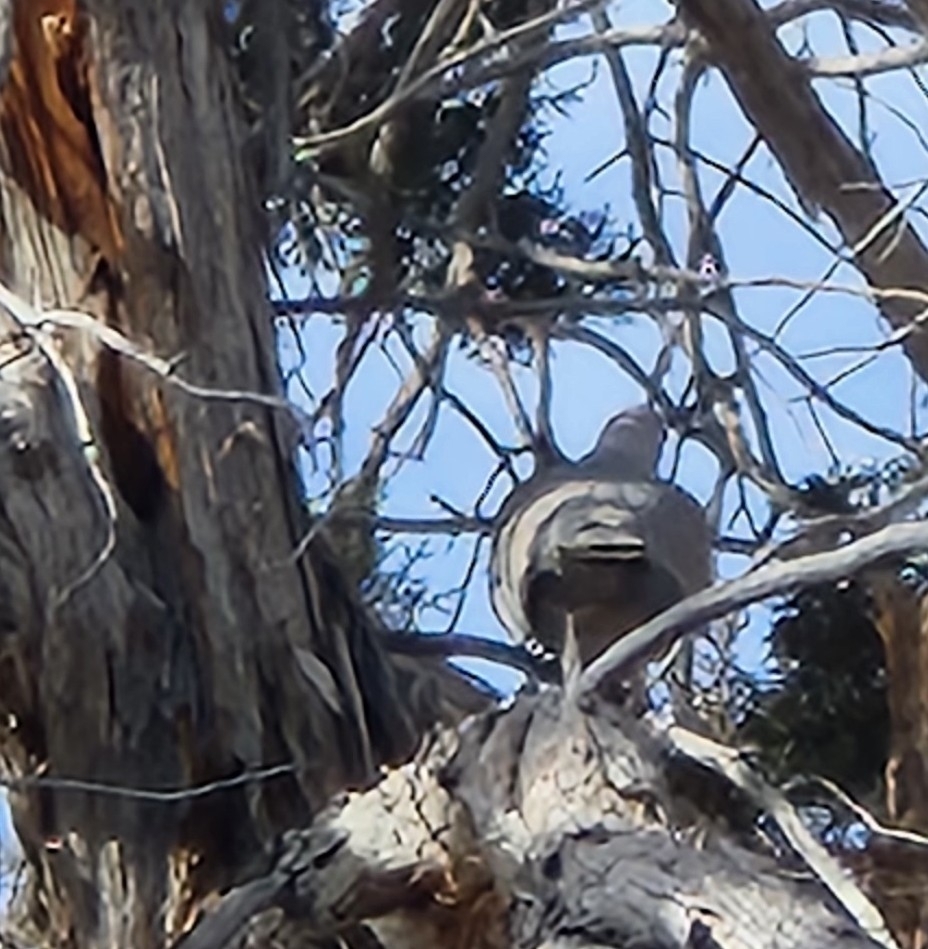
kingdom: Animalia
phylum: Chordata
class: Aves
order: Columbiformes
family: Columbidae
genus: Streptopelia
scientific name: Streptopelia decaocto
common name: Eurasian collared dove
